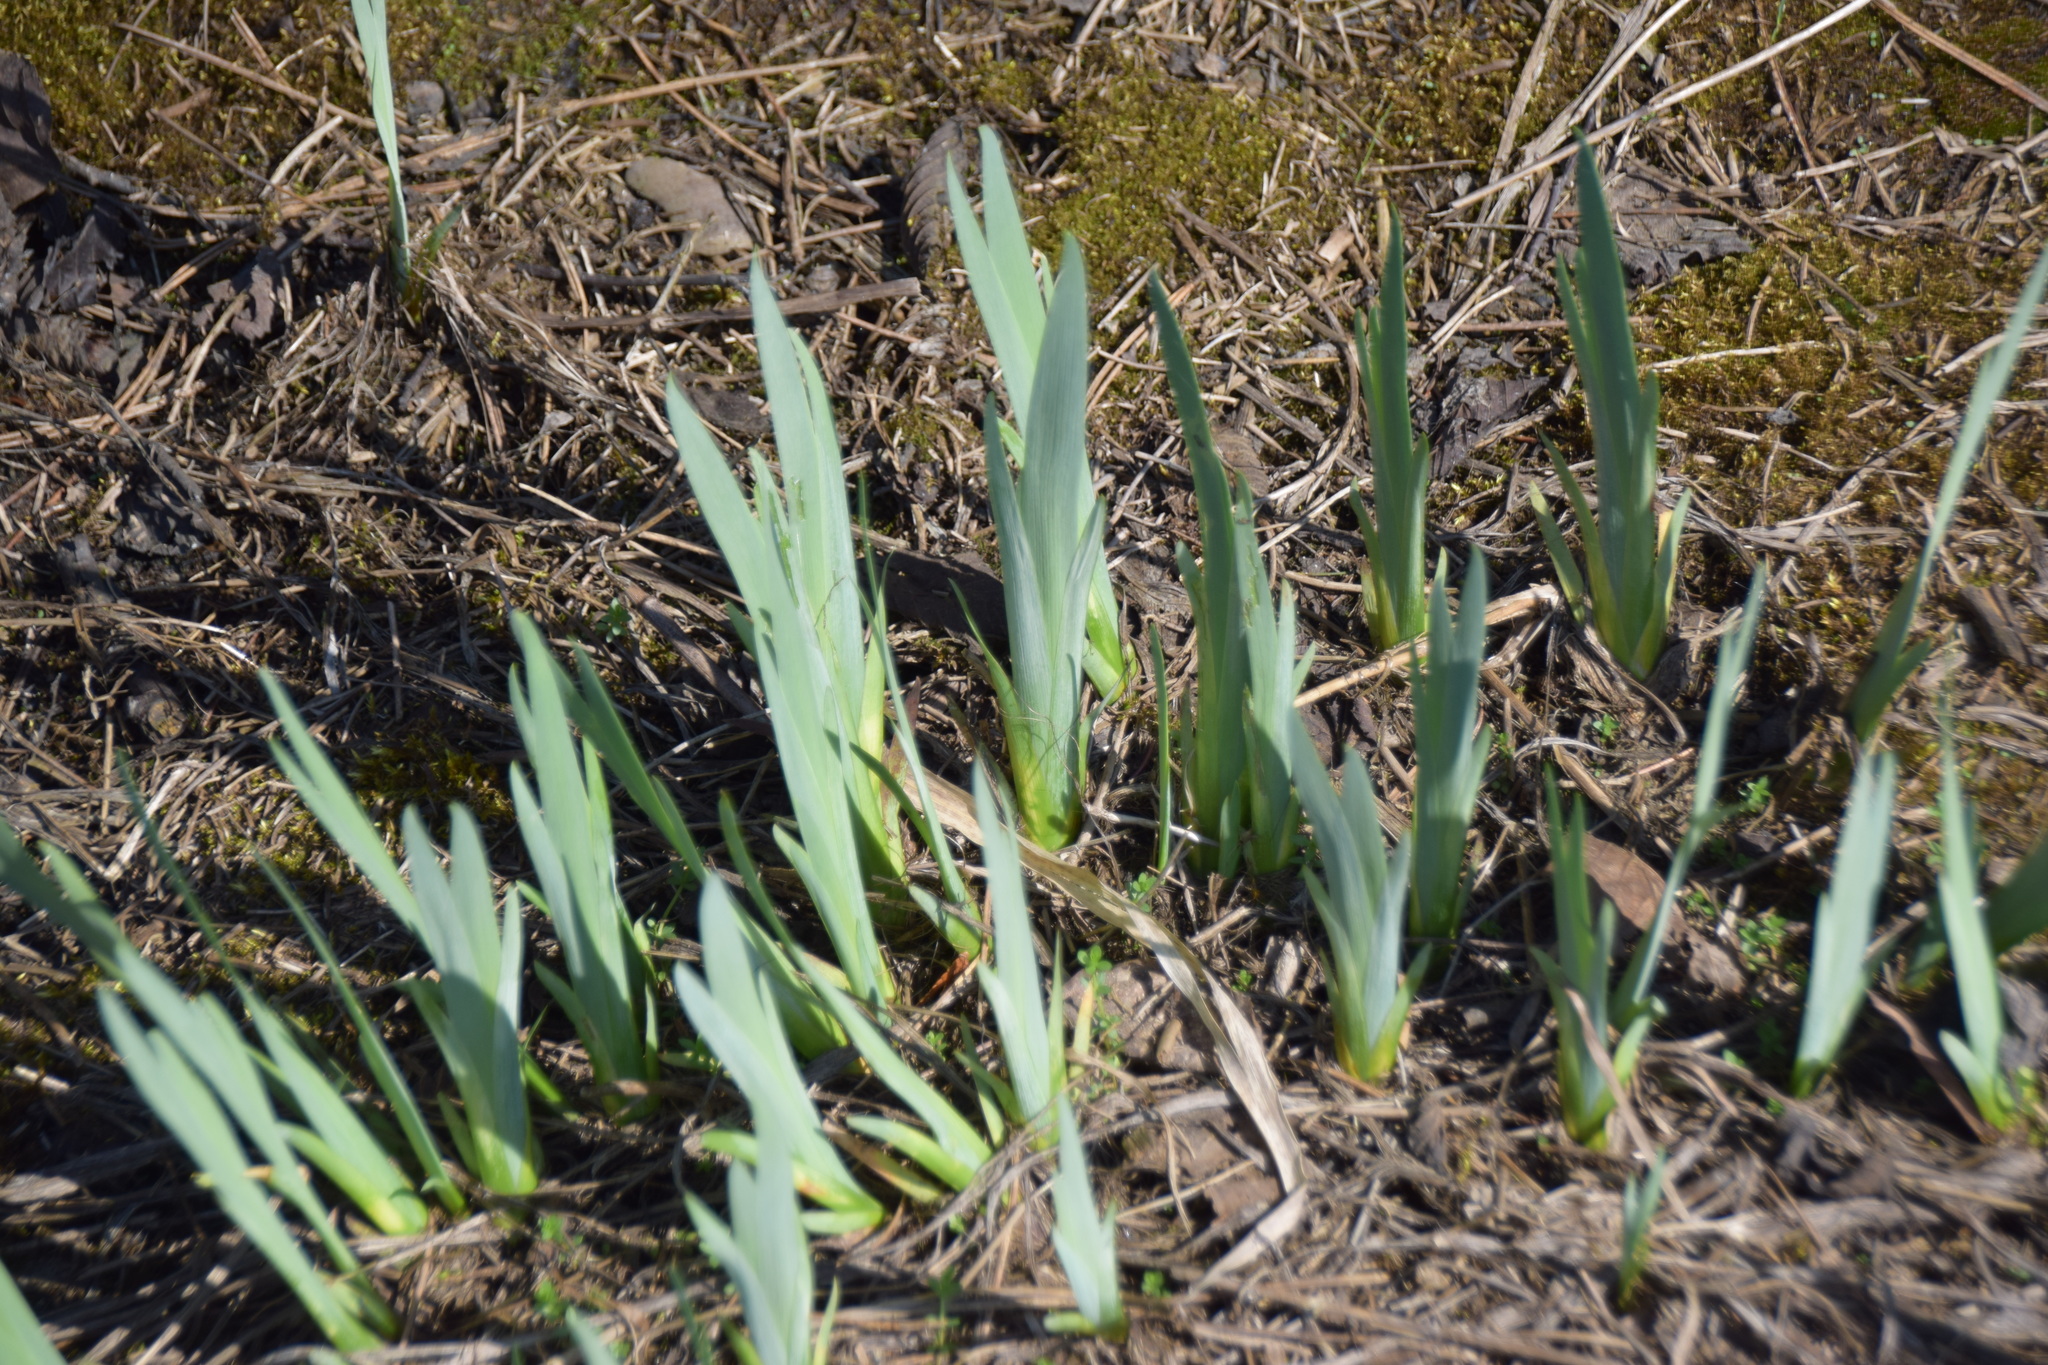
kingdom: Plantae
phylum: Tracheophyta
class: Liliopsida
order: Asparagales
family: Iridaceae
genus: Iris
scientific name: Iris versicolor
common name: Purple iris
